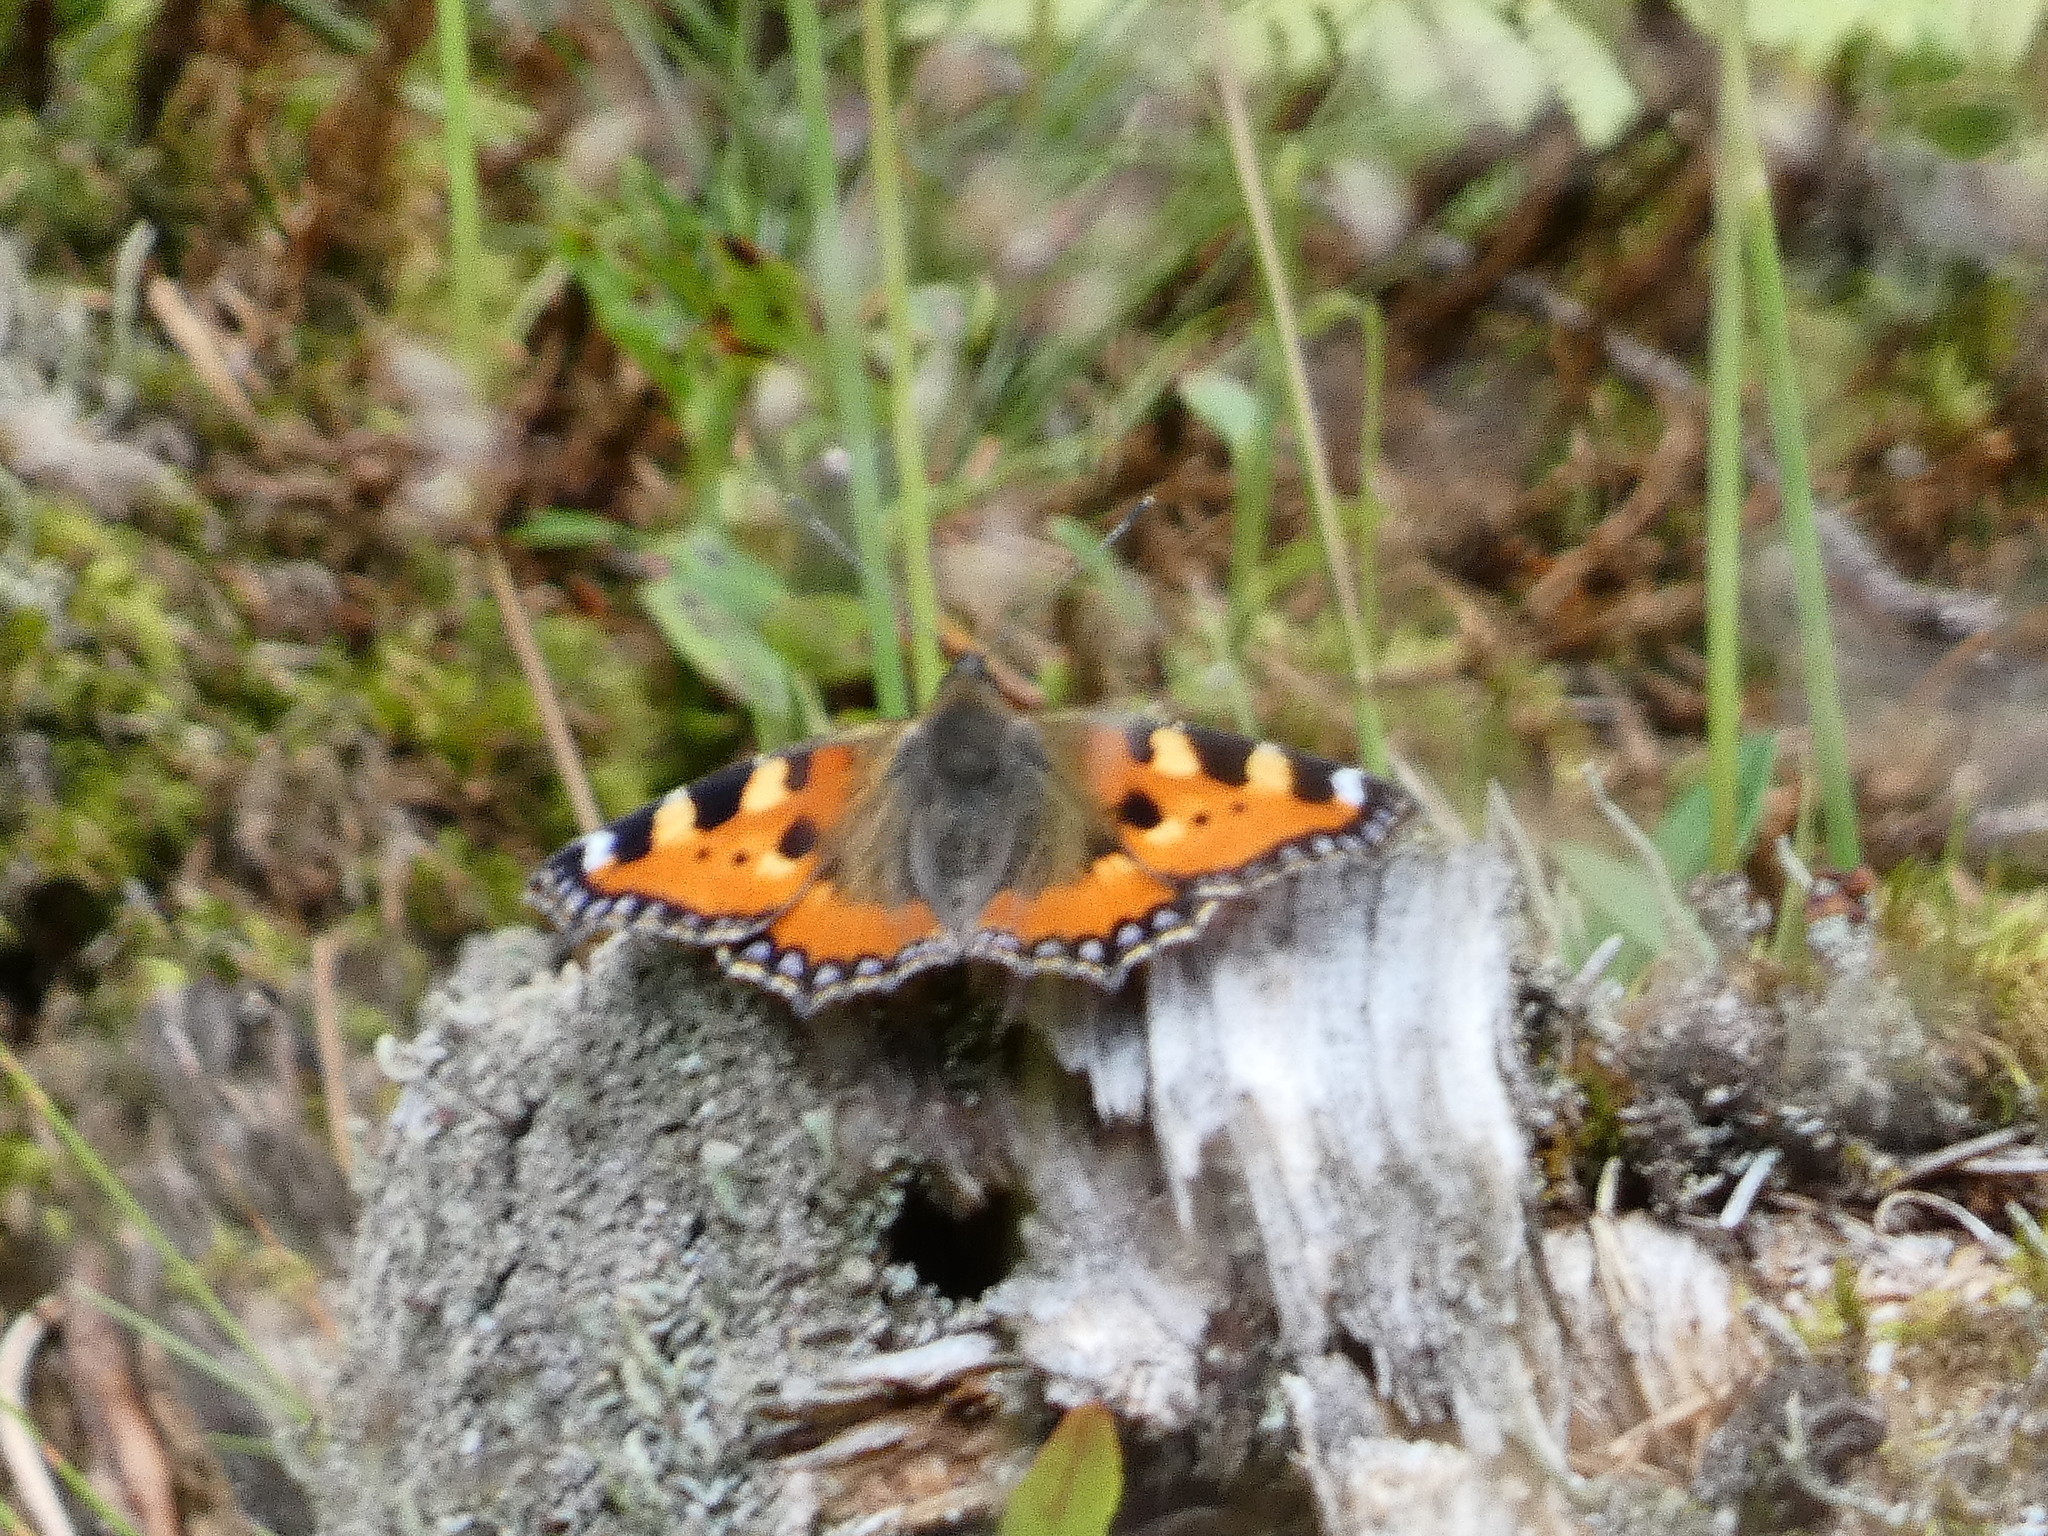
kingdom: Animalia
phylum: Arthropoda
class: Insecta
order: Lepidoptera
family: Nymphalidae
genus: Aglais
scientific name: Aglais urticae
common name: Small tortoiseshell
